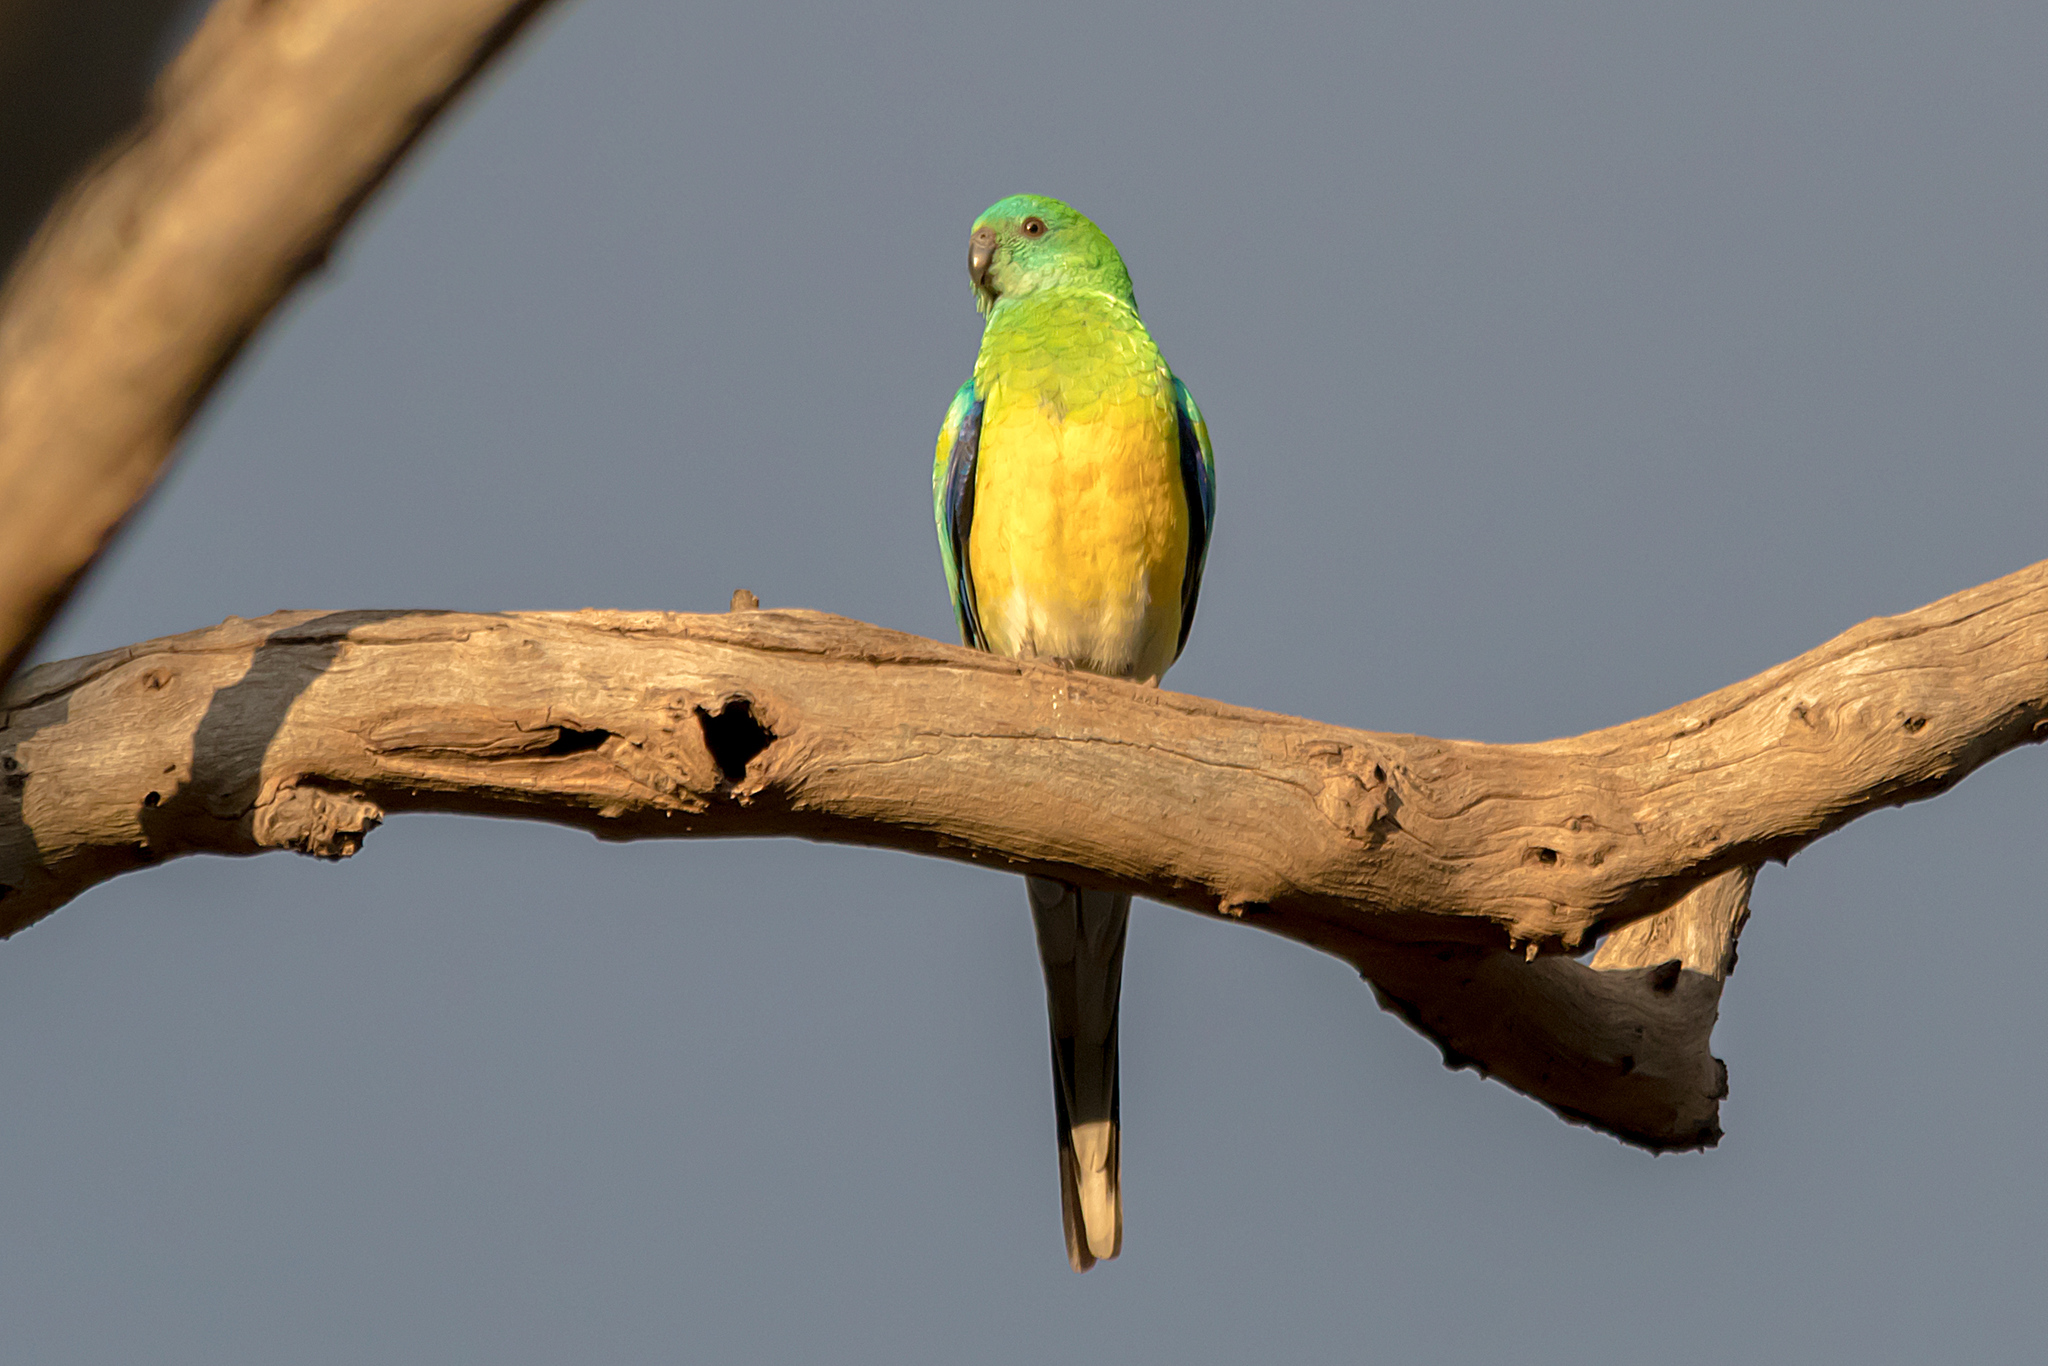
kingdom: Animalia
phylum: Chordata
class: Aves
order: Psittaciformes
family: Psittacidae
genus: Psephotus
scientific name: Psephotus haematonotus
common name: Red-rumped parrot
